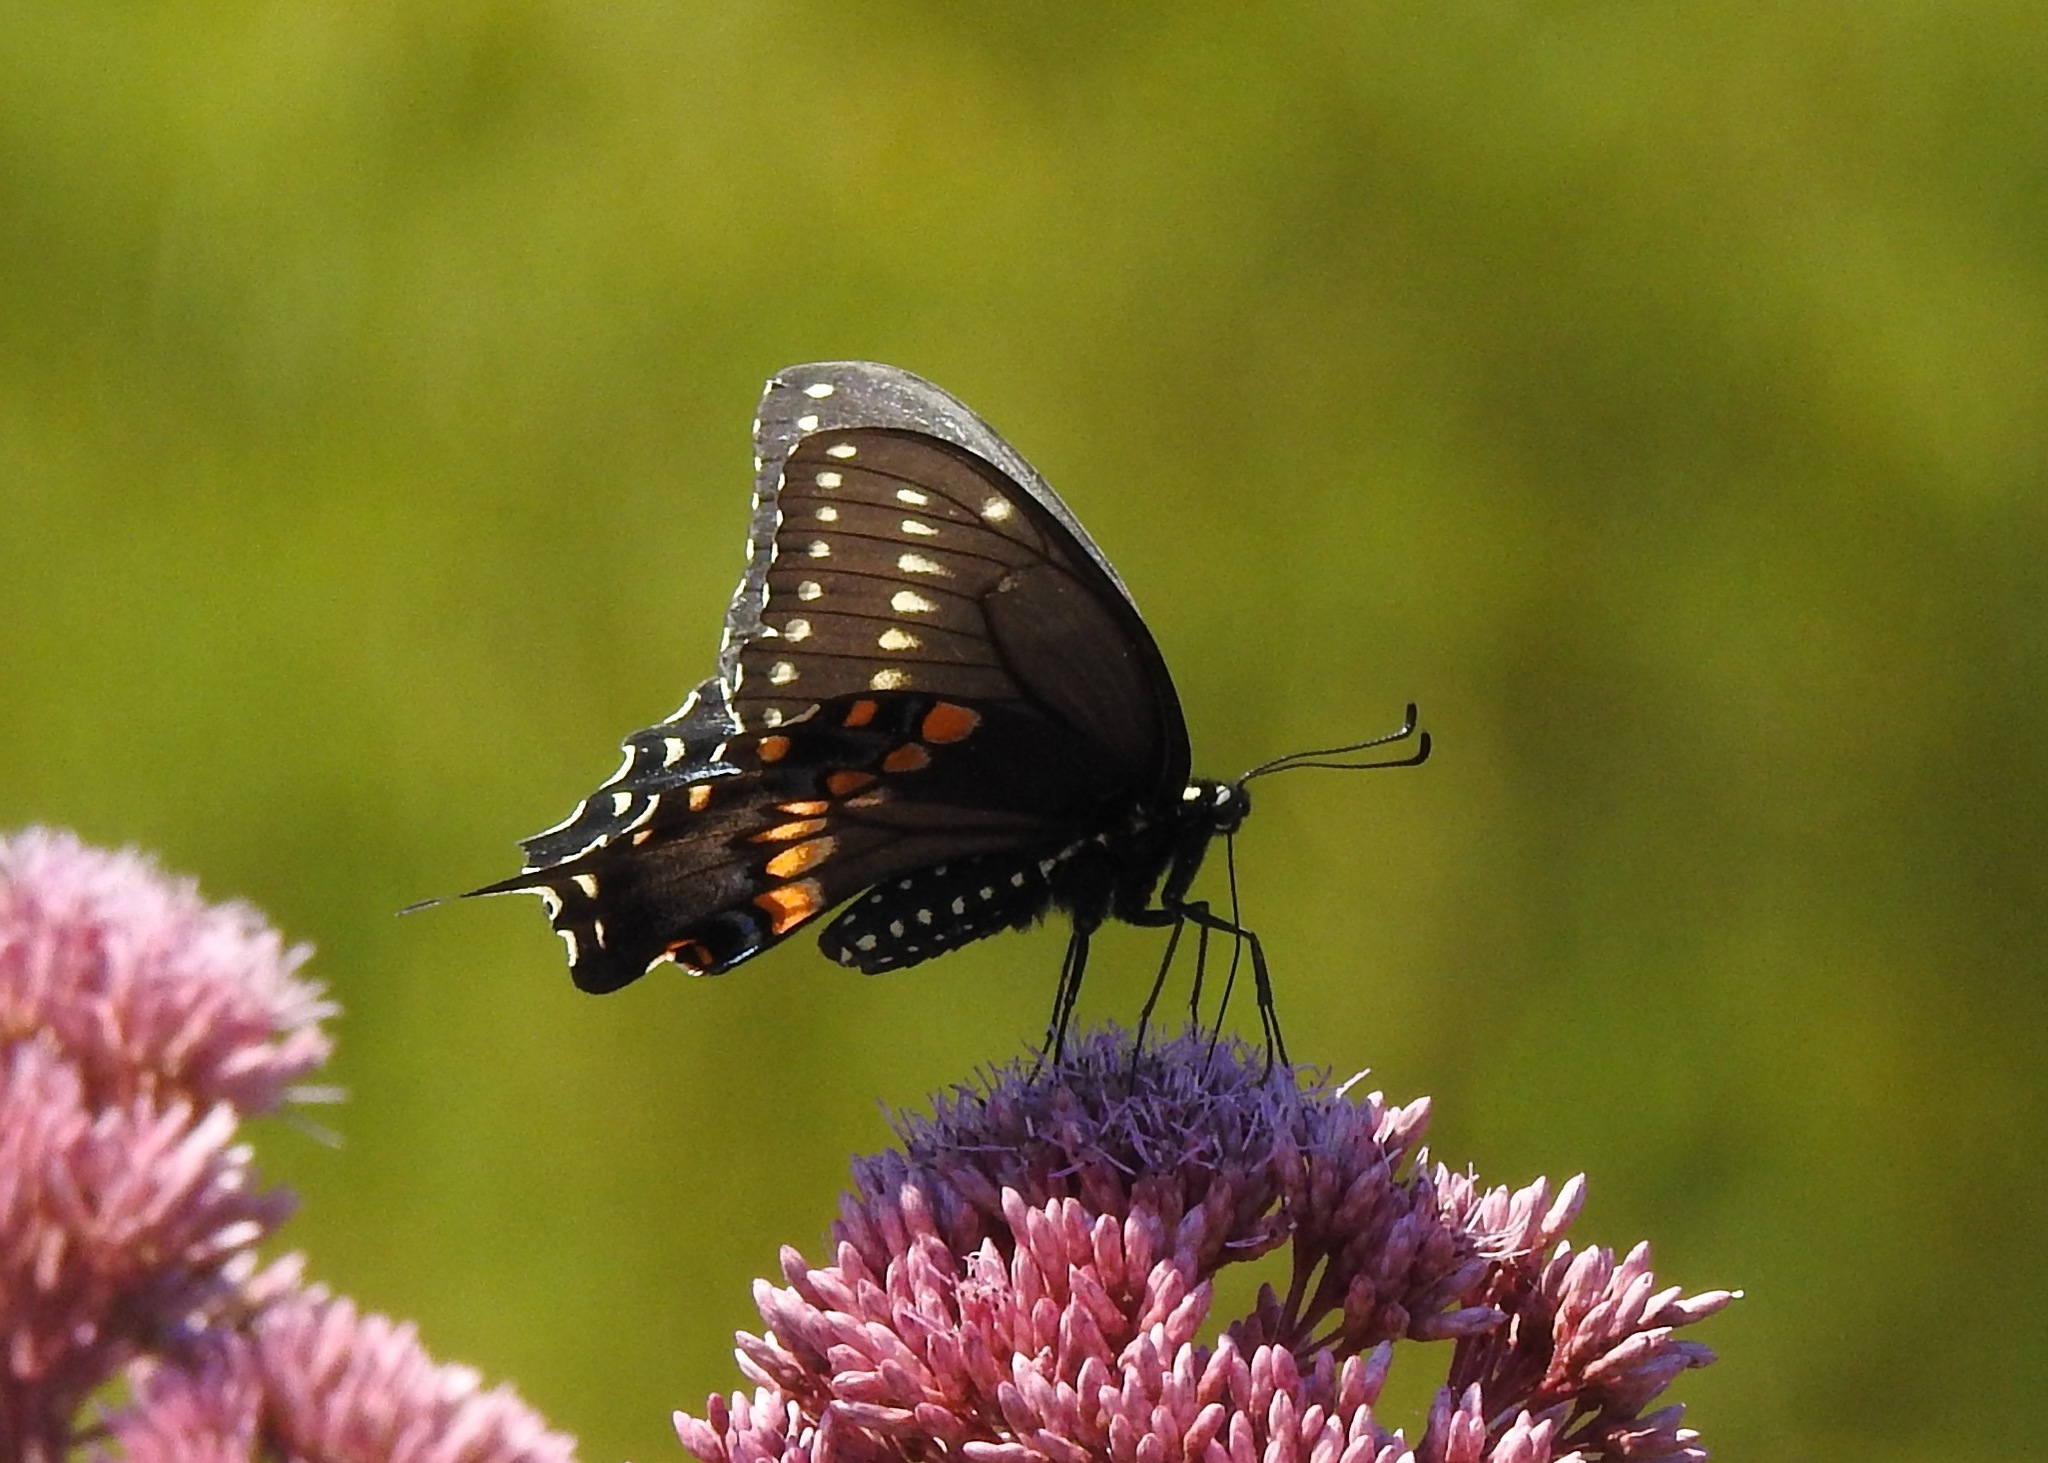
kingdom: Animalia
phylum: Arthropoda
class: Insecta
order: Lepidoptera
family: Papilionidae
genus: Papilio
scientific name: Papilio polyxenes
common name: Black swallowtail
